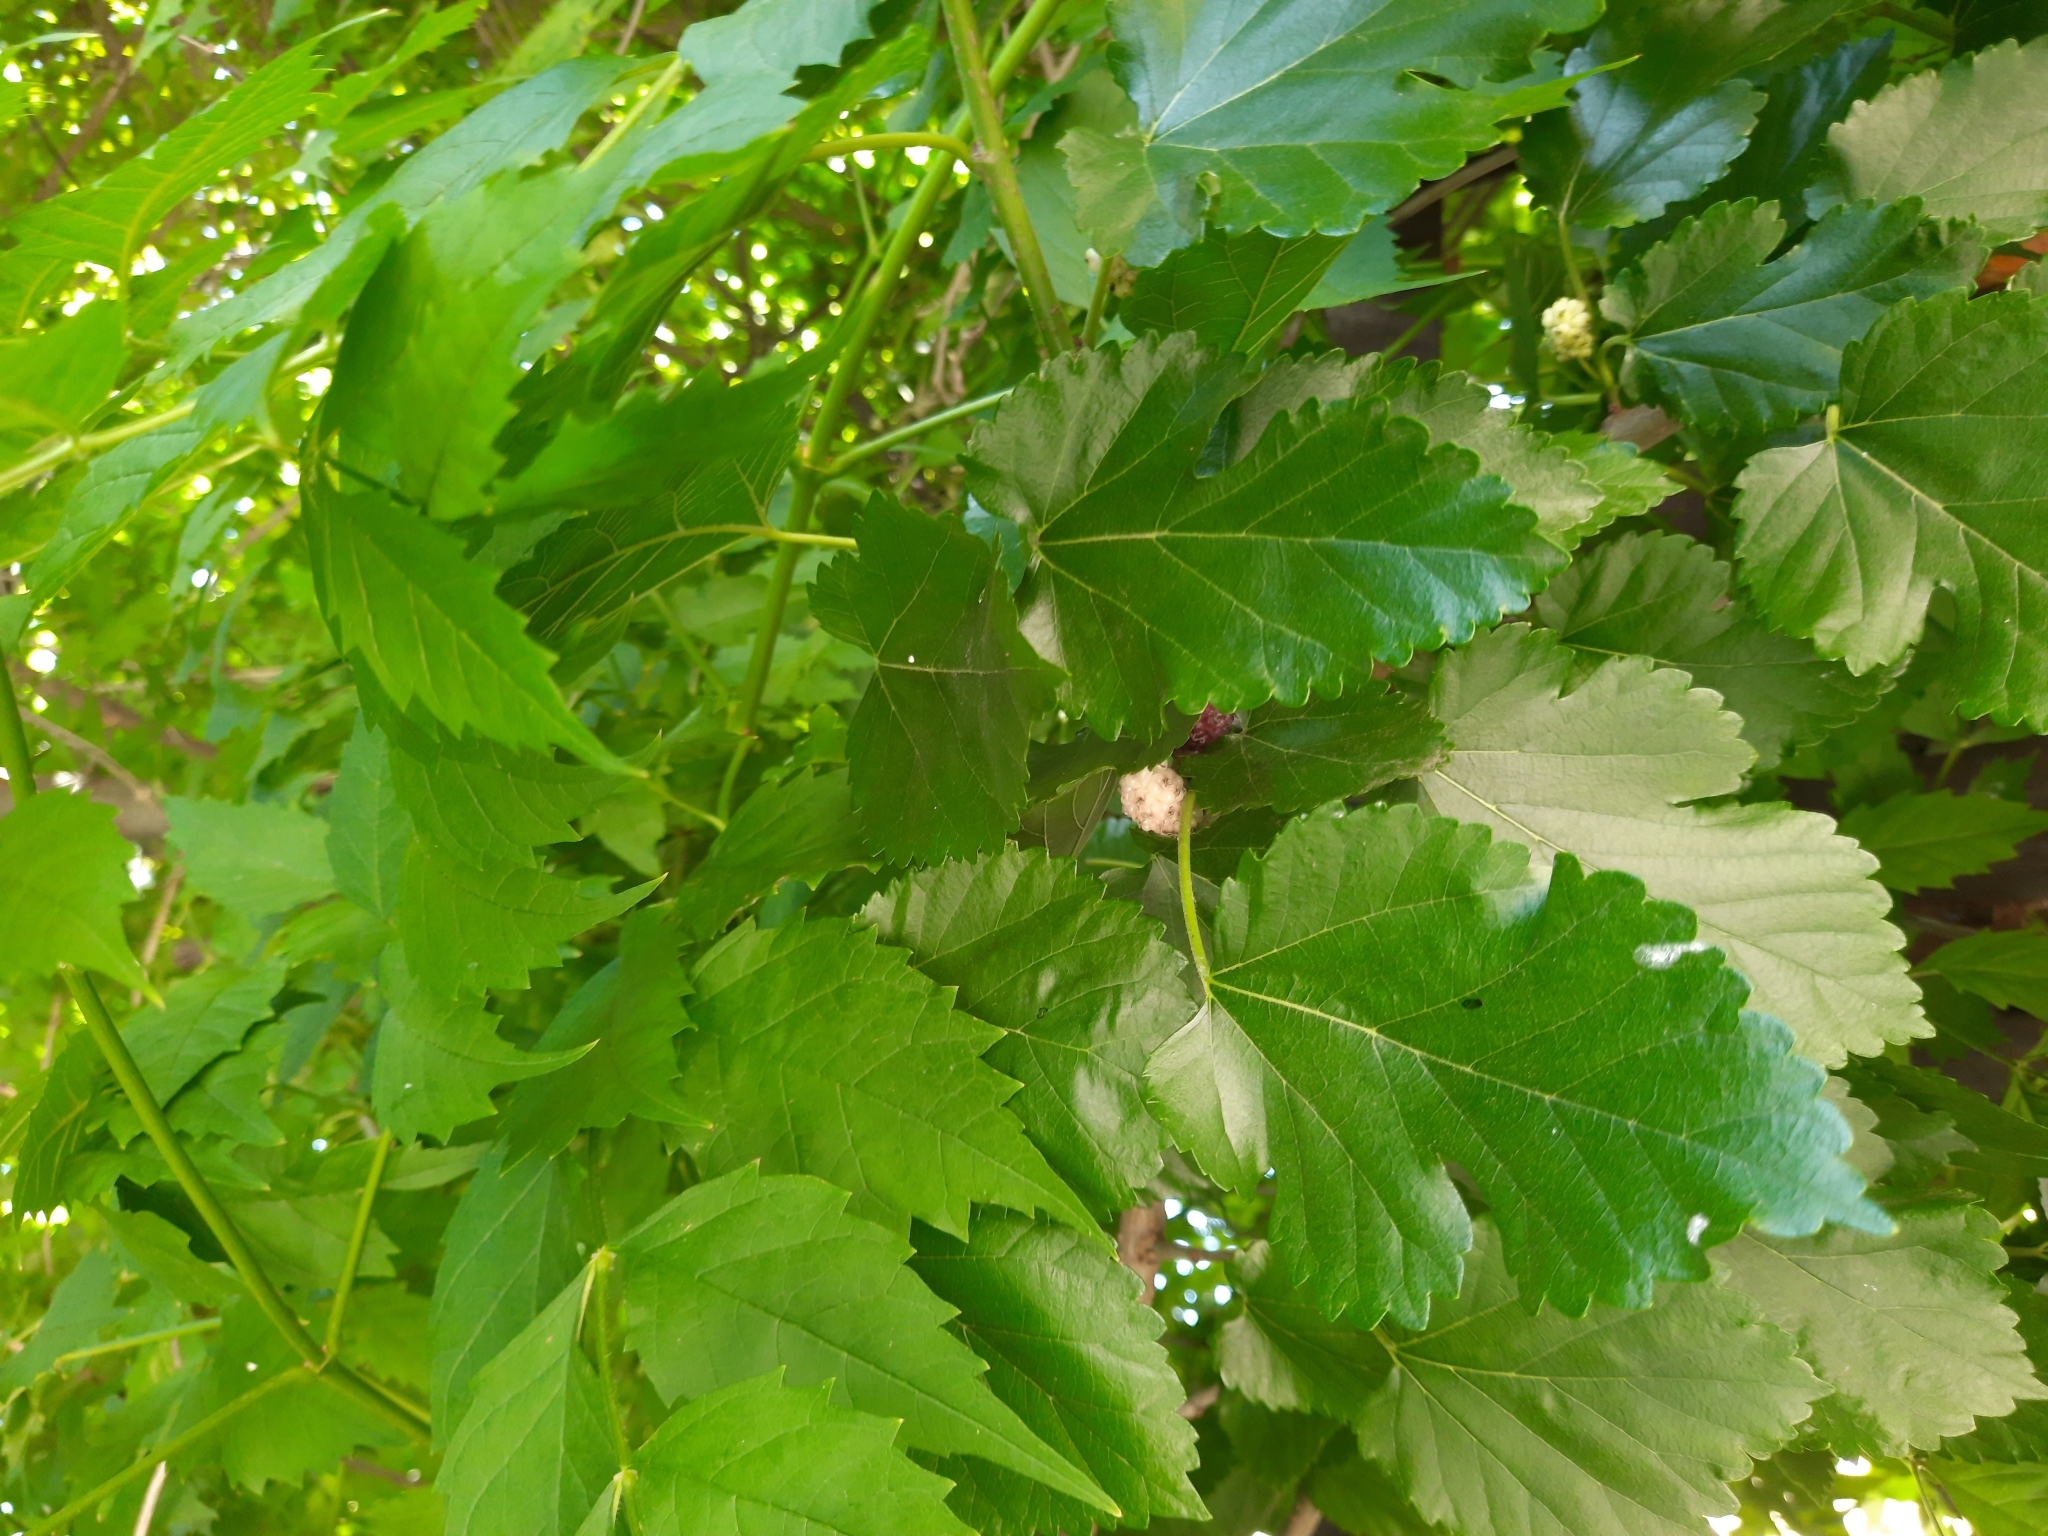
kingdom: Plantae
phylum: Tracheophyta
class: Magnoliopsida
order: Rosales
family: Moraceae
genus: Morus
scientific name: Morus alba
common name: White mulberry
